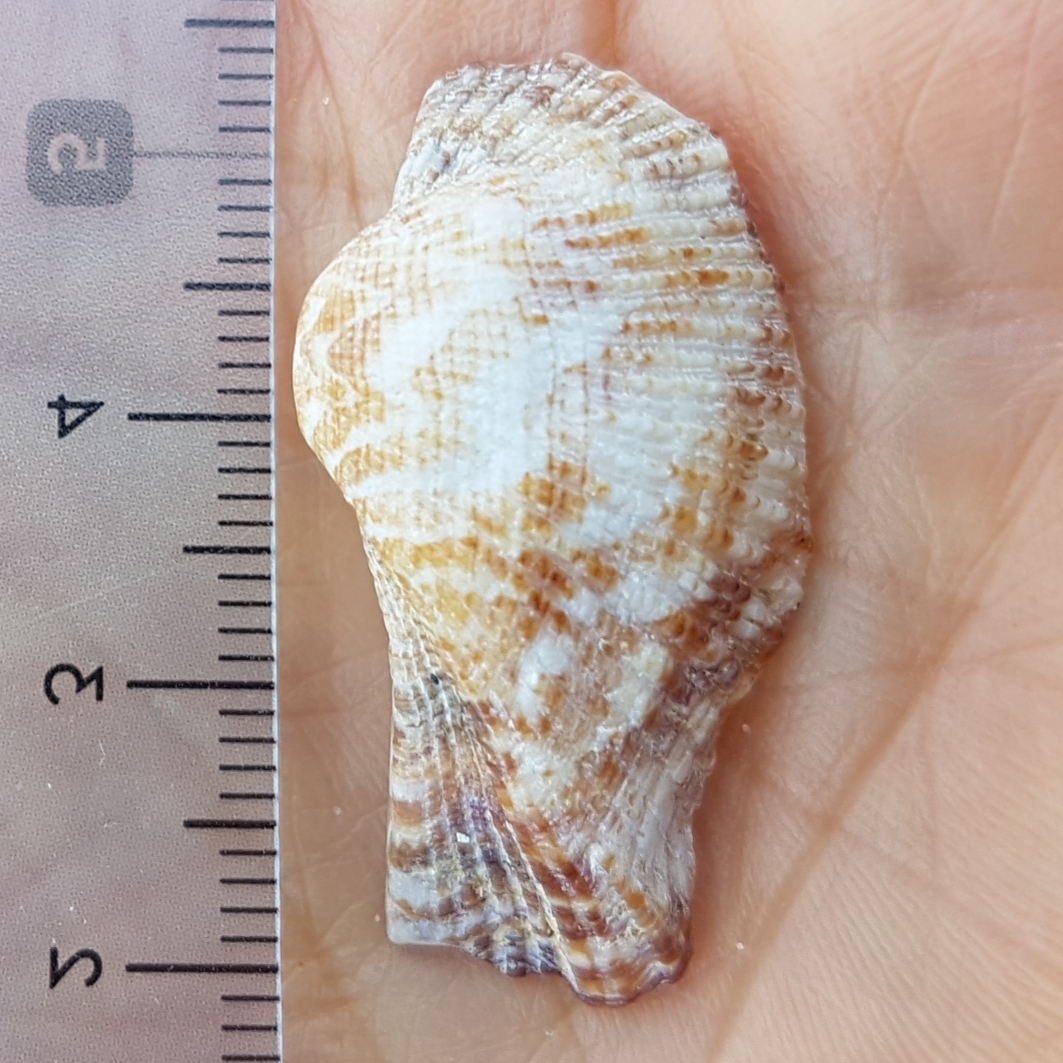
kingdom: Animalia
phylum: Mollusca
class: Bivalvia
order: Arcida
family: Arcidae
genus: Arca
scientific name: Arca noae
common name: Noah's arch
